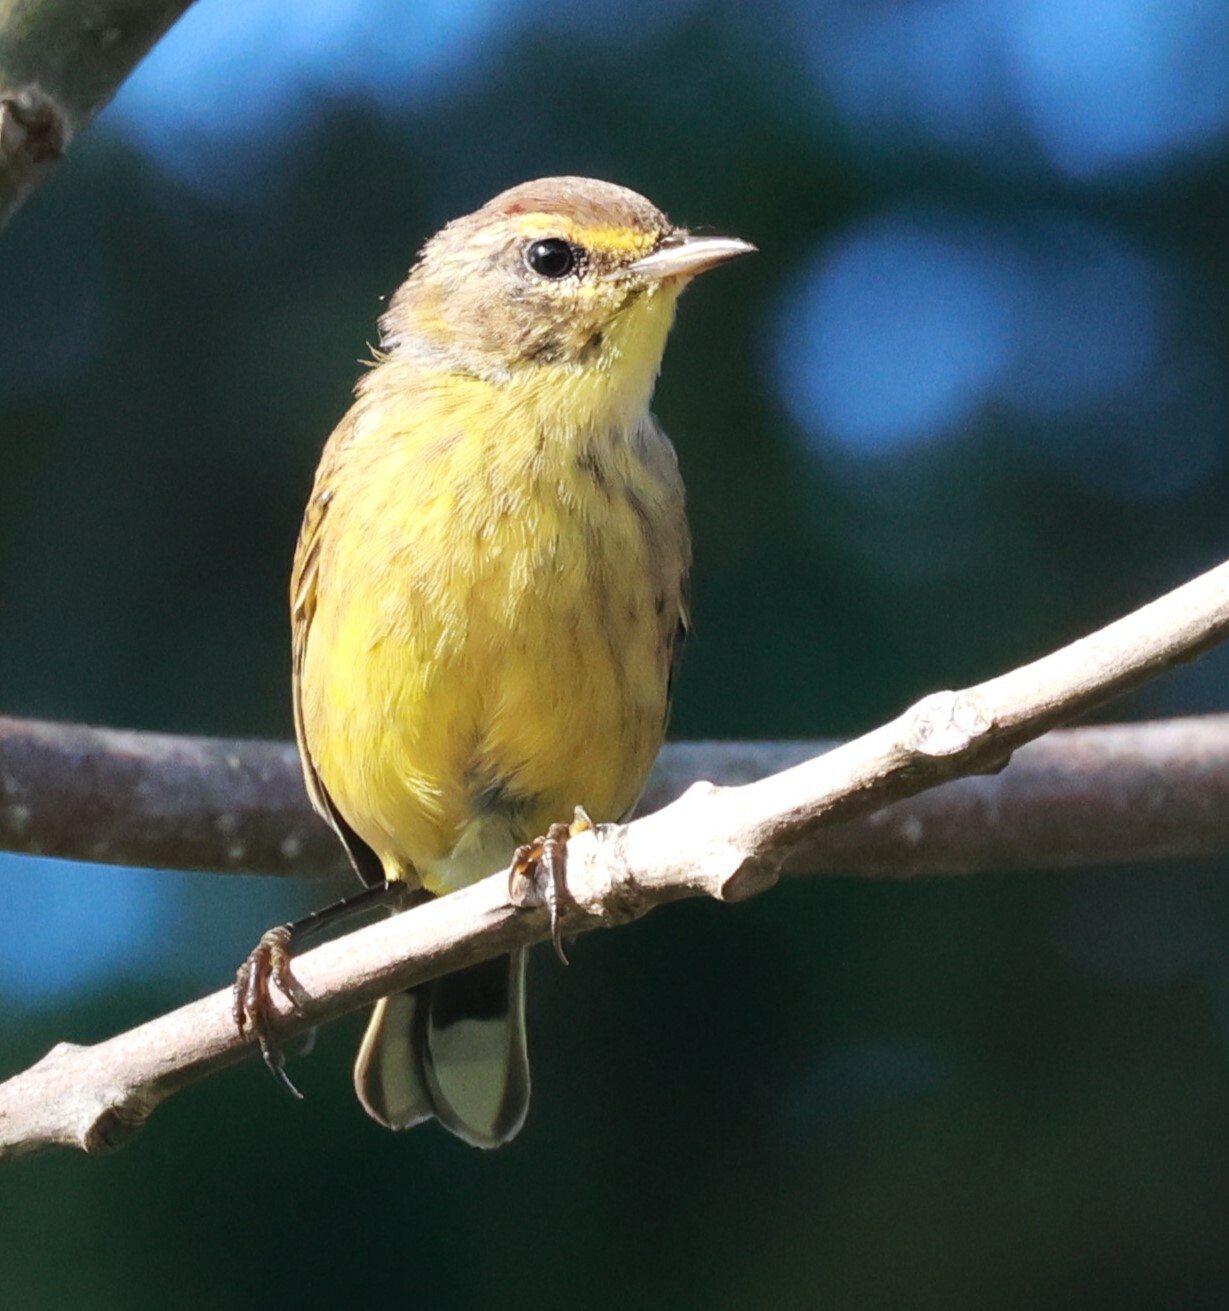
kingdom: Animalia
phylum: Chordata
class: Aves
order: Passeriformes
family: Parulidae
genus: Setophaga
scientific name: Setophaga palmarum
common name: Palm warbler
